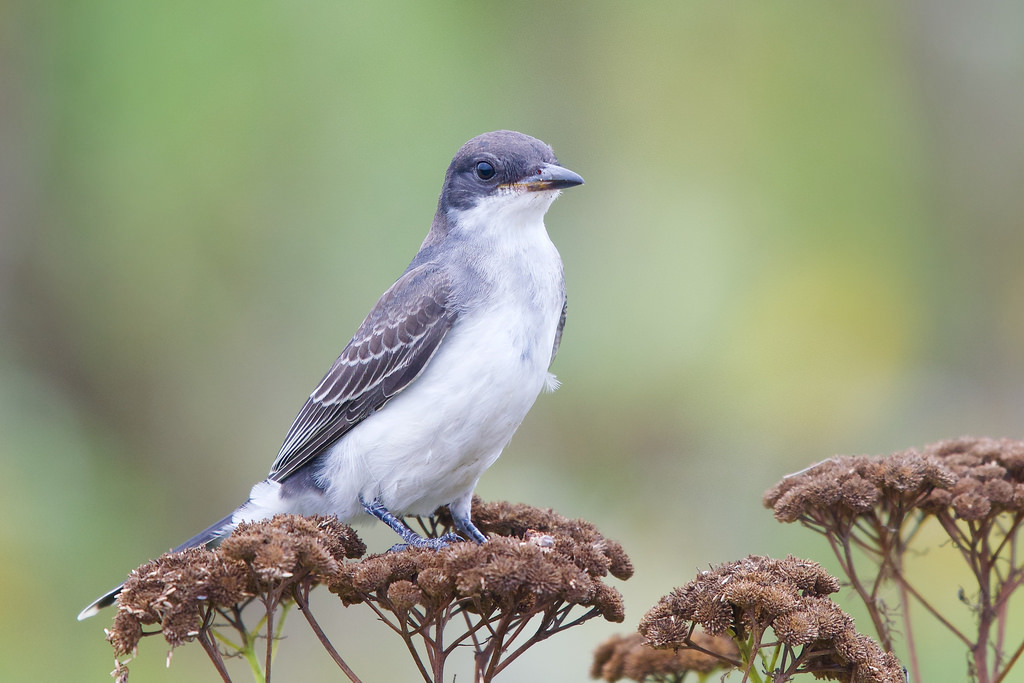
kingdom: Animalia
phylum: Chordata
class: Aves
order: Passeriformes
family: Tyrannidae
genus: Tyrannus
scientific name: Tyrannus tyrannus
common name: Eastern kingbird
